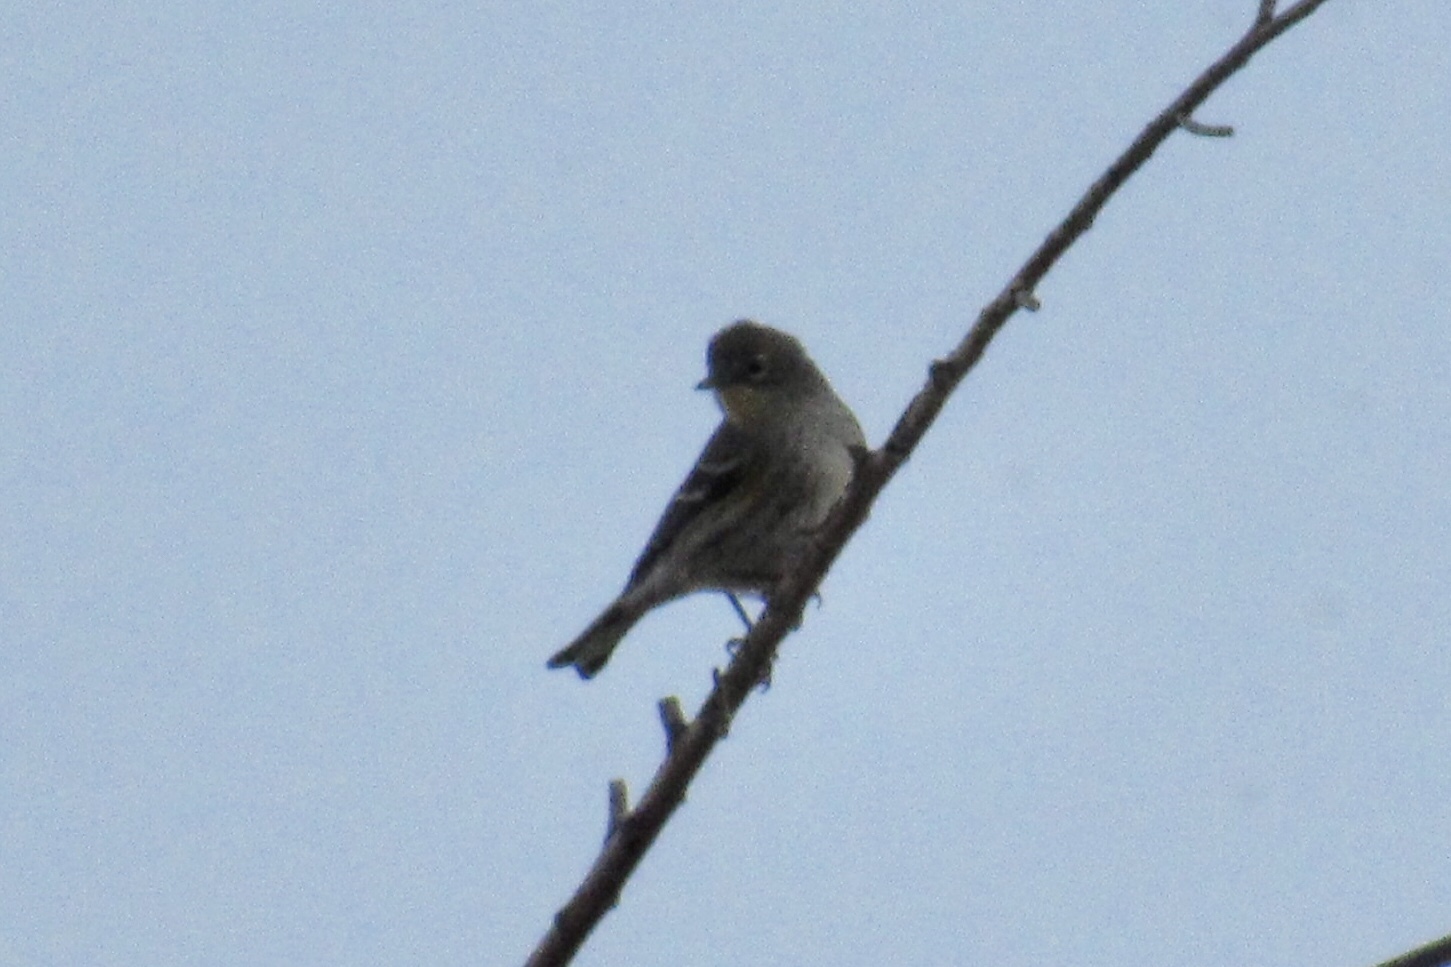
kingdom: Animalia
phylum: Chordata
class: Aves
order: Passeriformes
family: Parulidae
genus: Setophaga
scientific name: Setophaga coronata
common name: Myrtle warbler
